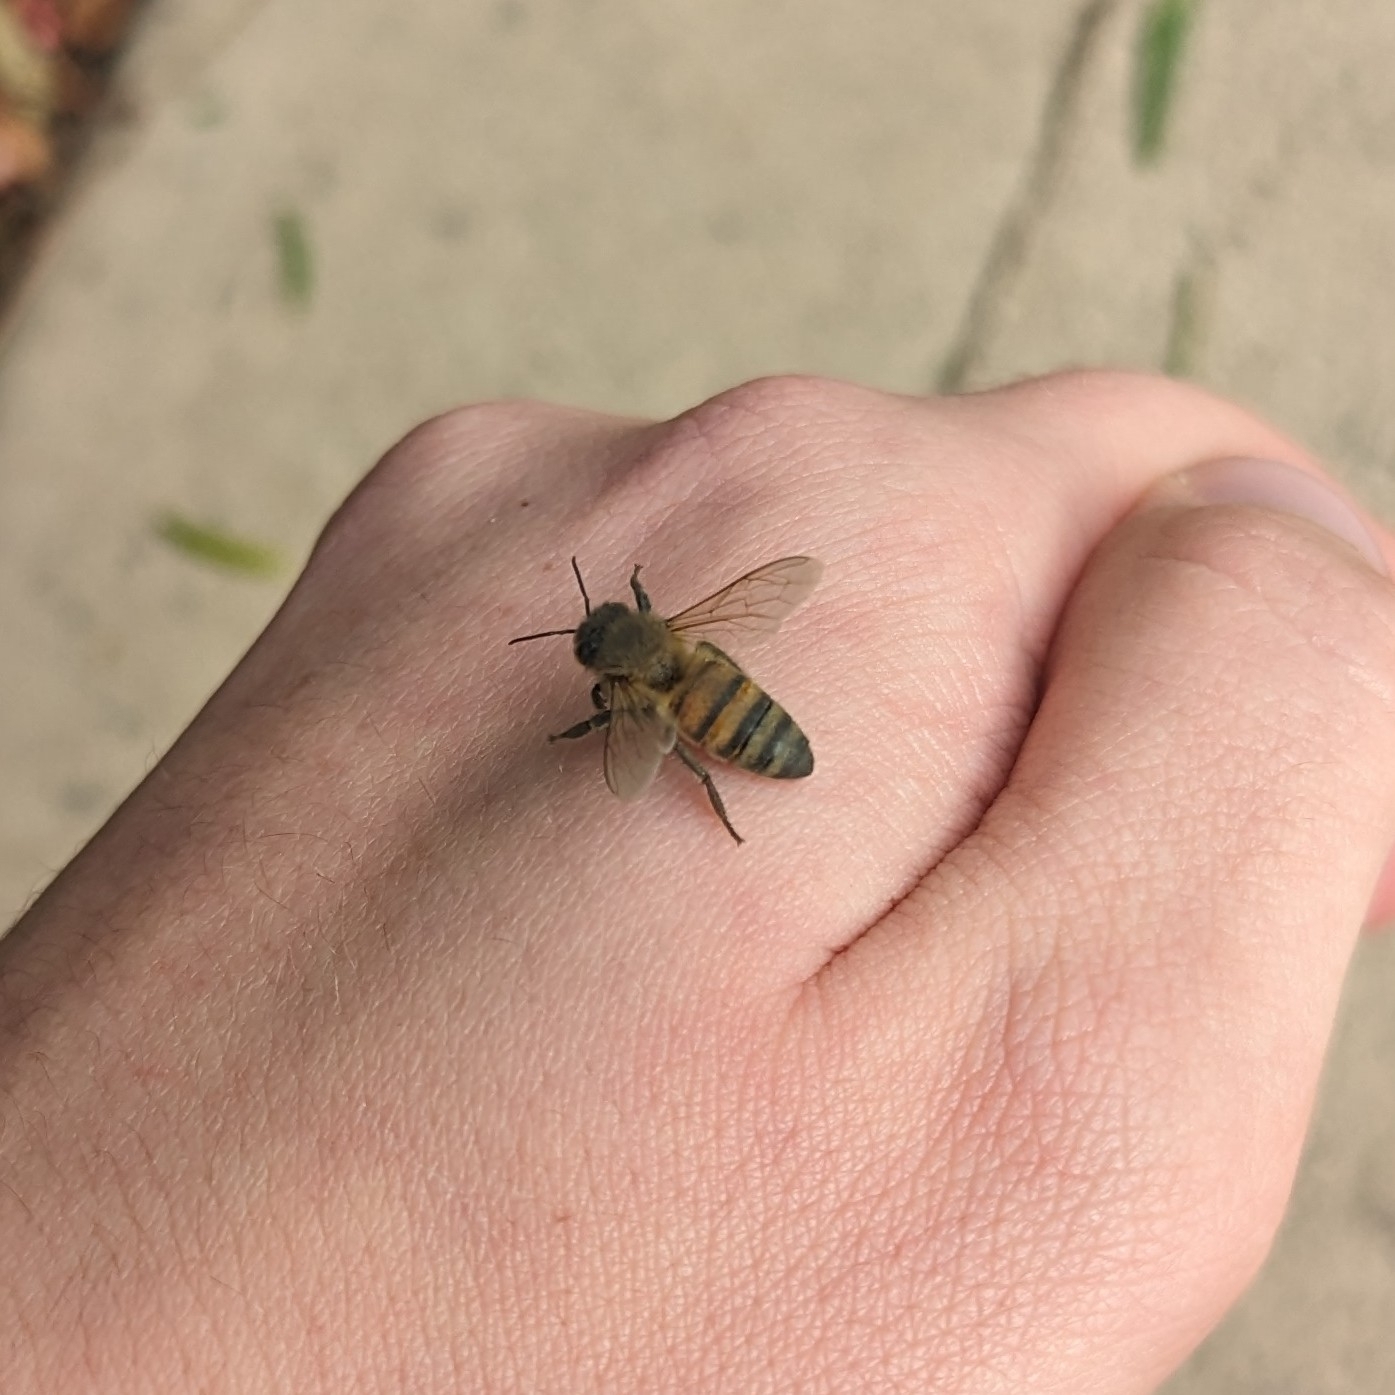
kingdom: Animalia
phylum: Arthropoda
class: Insecta
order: Hymenoptera
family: Apidae
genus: Apis
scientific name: Apis mellifera
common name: Honey bee
